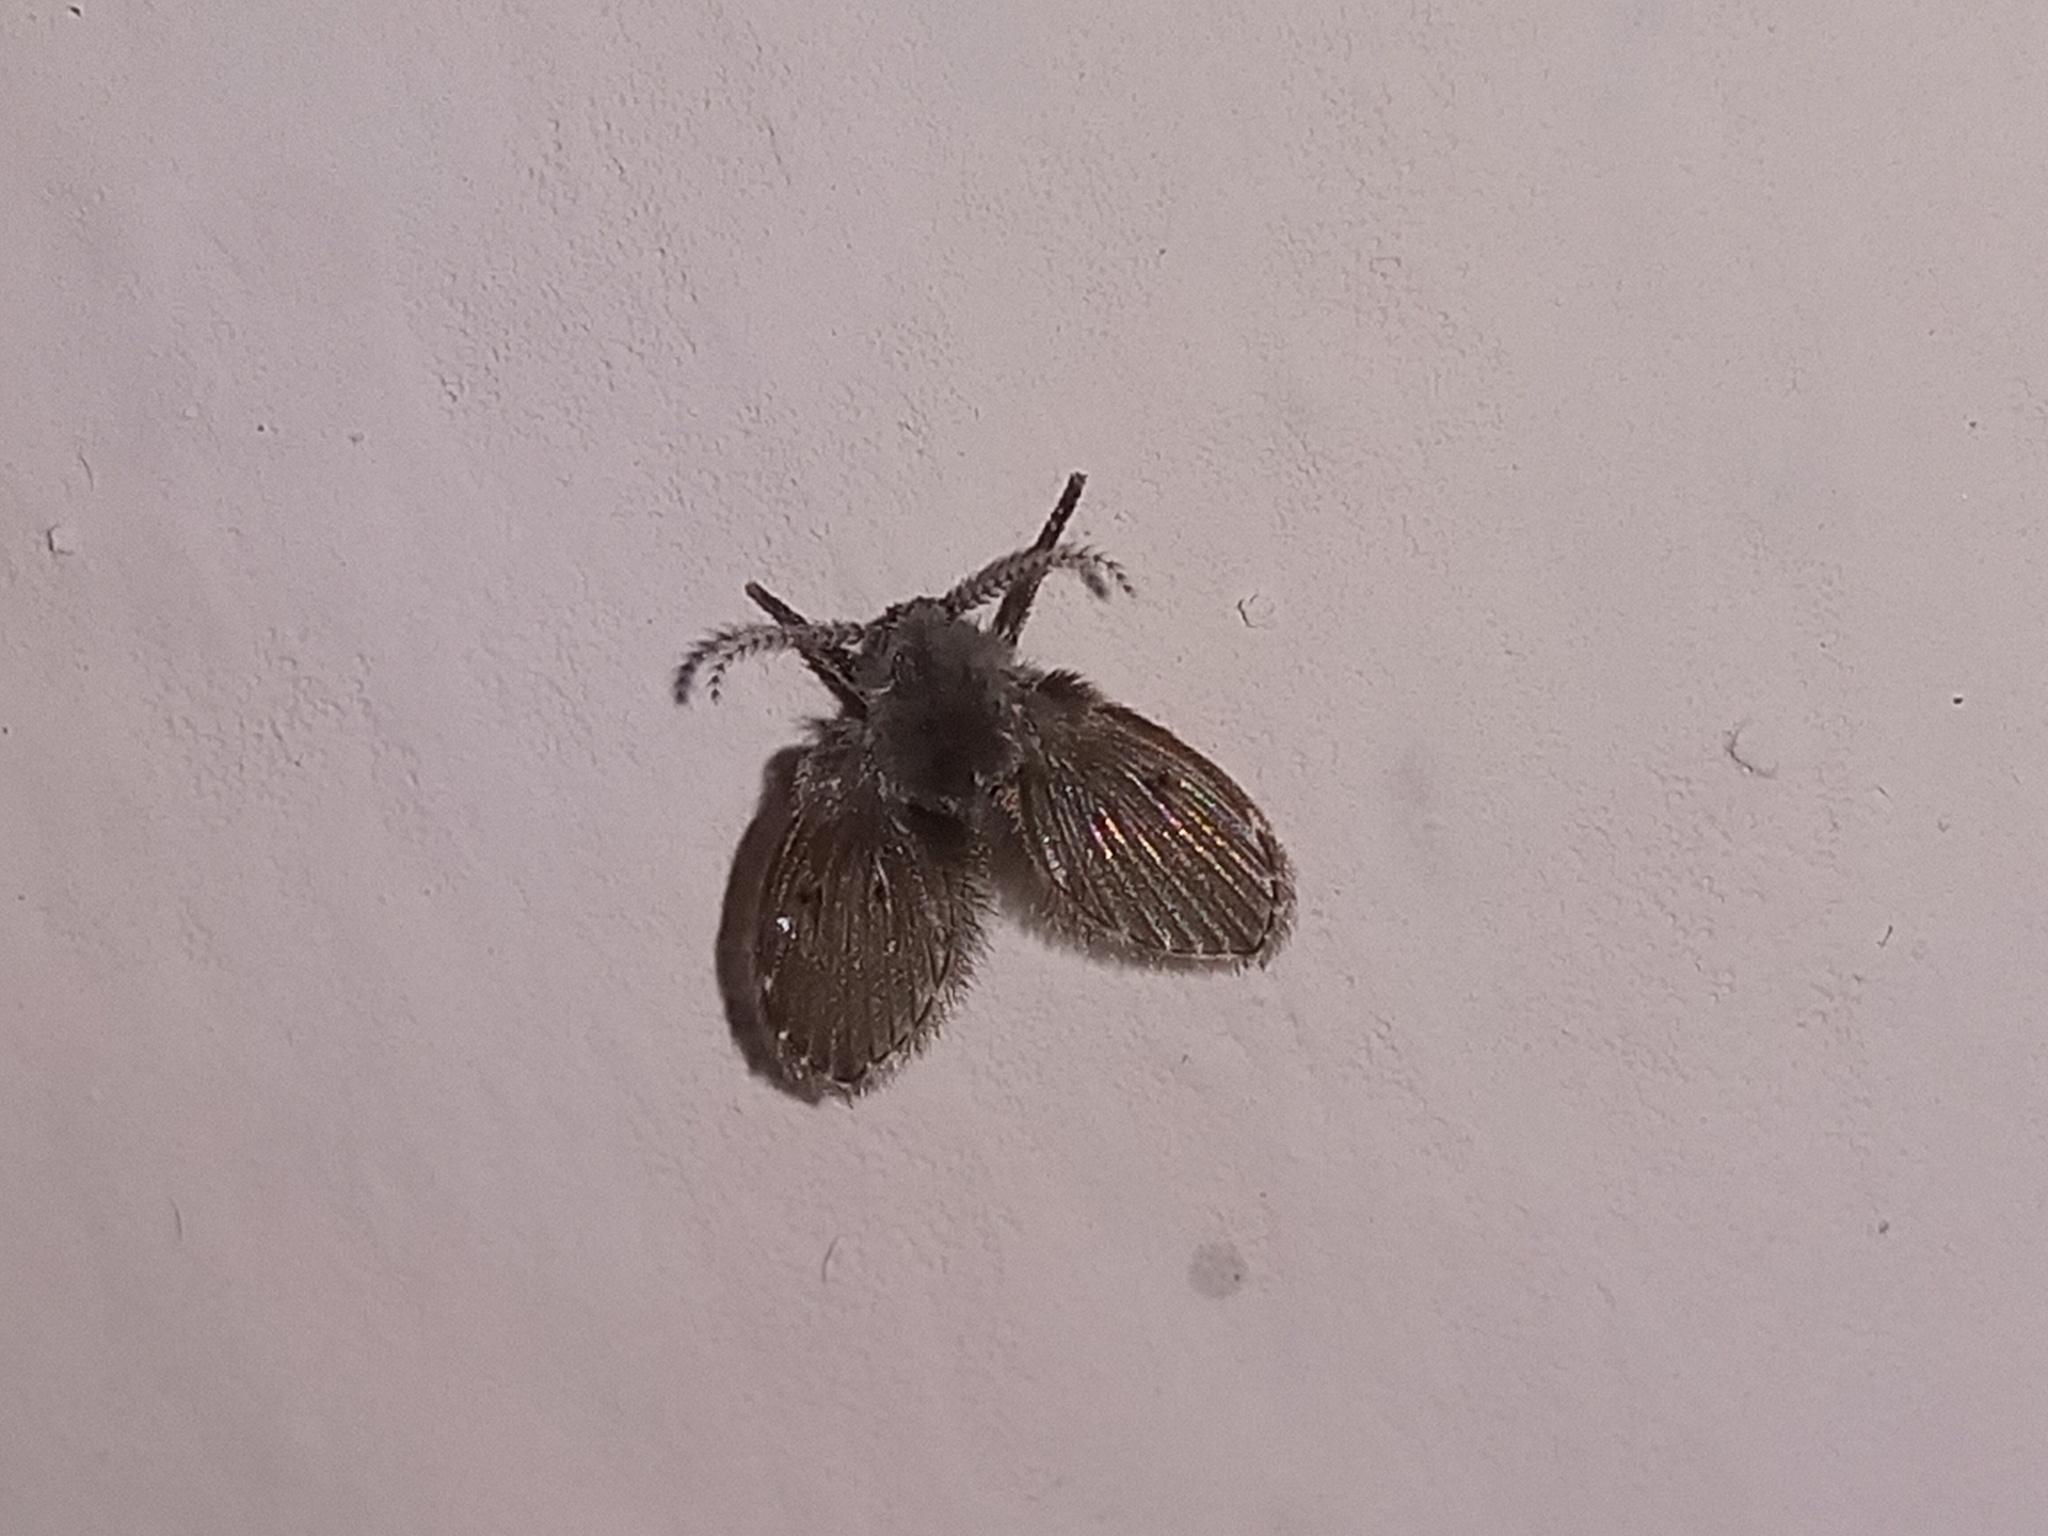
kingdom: Animalia
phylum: Arthropoda
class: Insecta
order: Diptera
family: Psychodidae
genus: Clogmia
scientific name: Clogmia albipunctatus
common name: White-spotted moth fly
